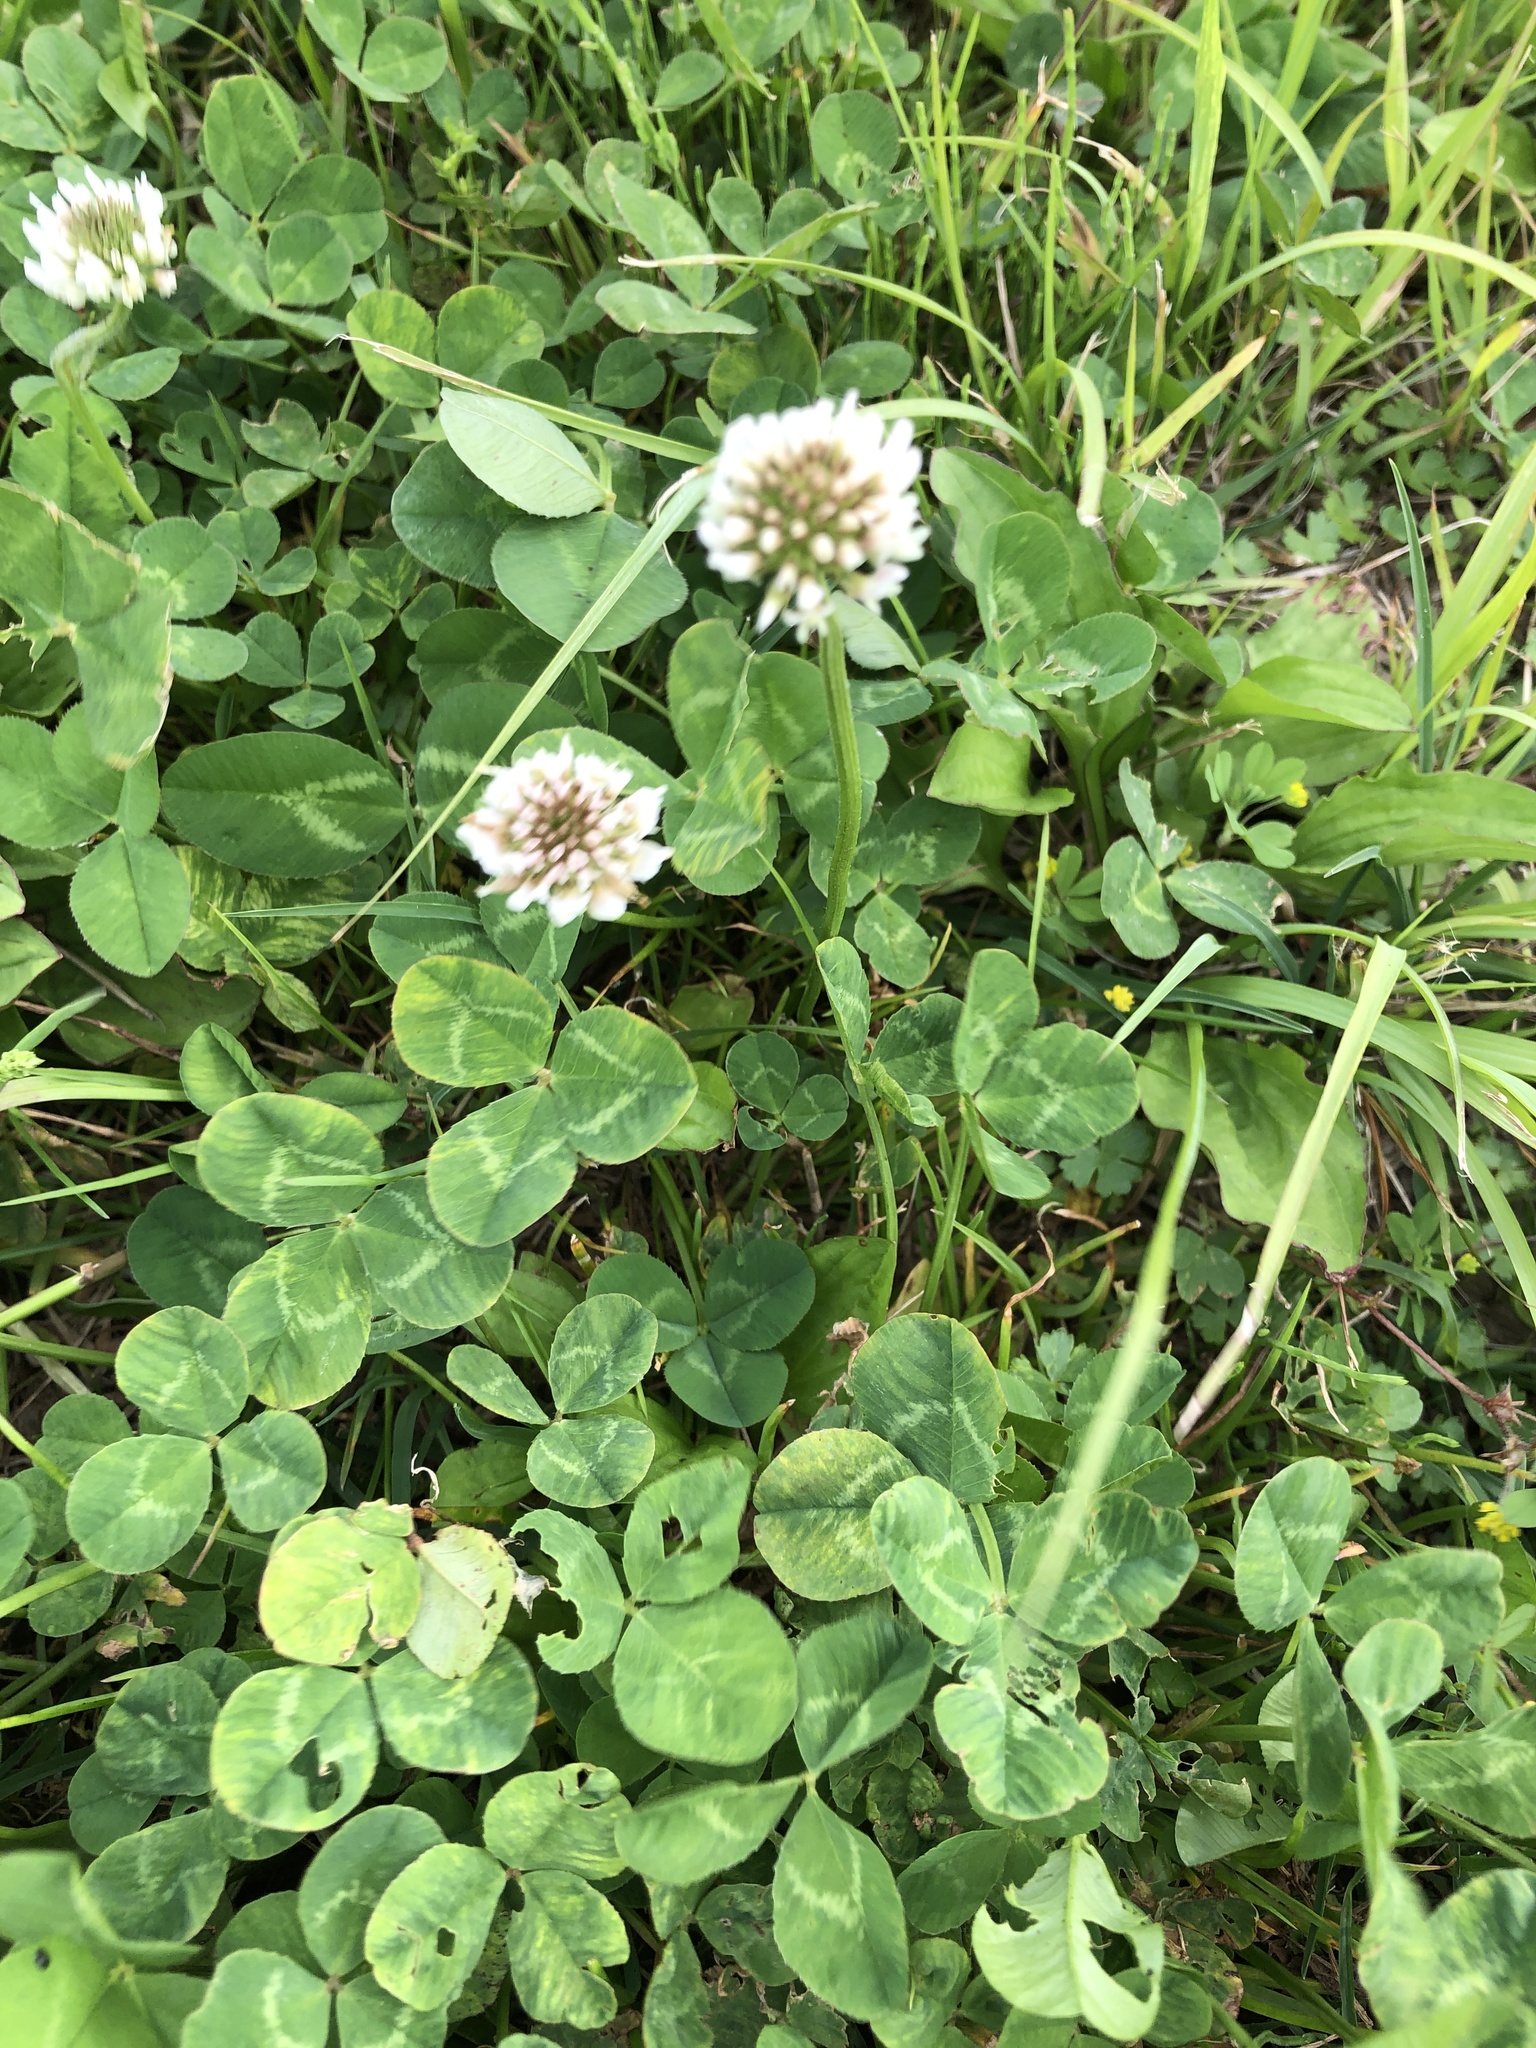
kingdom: Plantae
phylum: Tracheophyta
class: Magnoliopsida
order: Fabales
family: Fabaceae
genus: Trifolium
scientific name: Trifolium repens
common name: White clover
